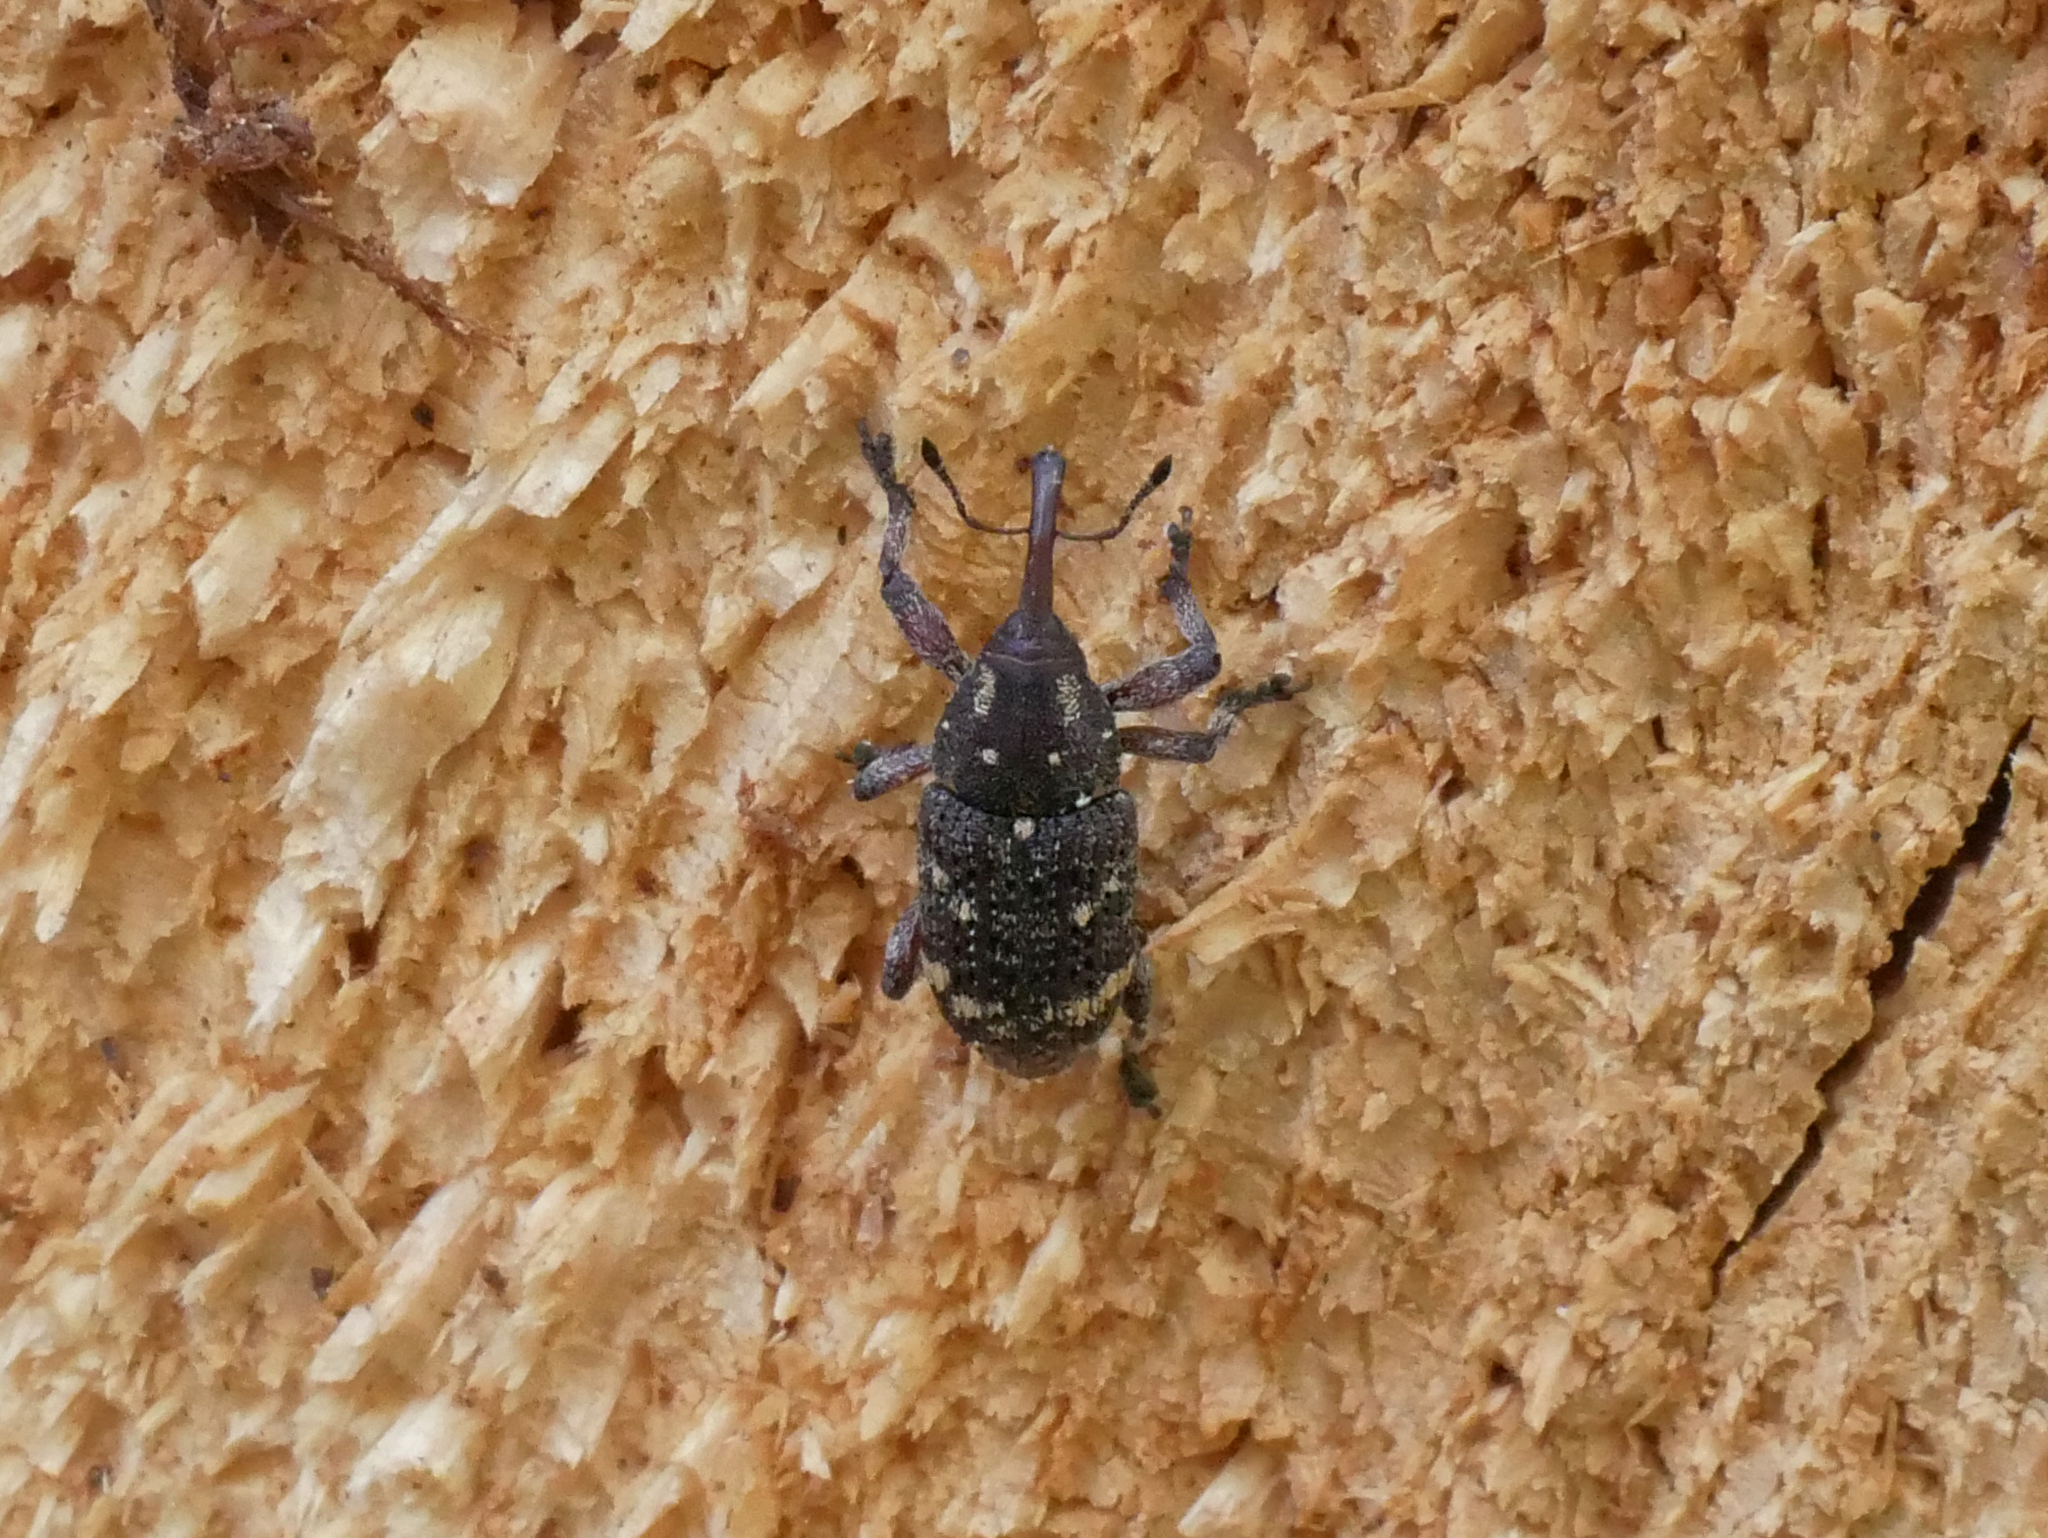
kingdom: Animalia
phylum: Arthropoda
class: Insecta
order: Coleoptera
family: Curculionidae
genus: Pissodes
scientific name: Pissodes pini
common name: Banded pine weevil
